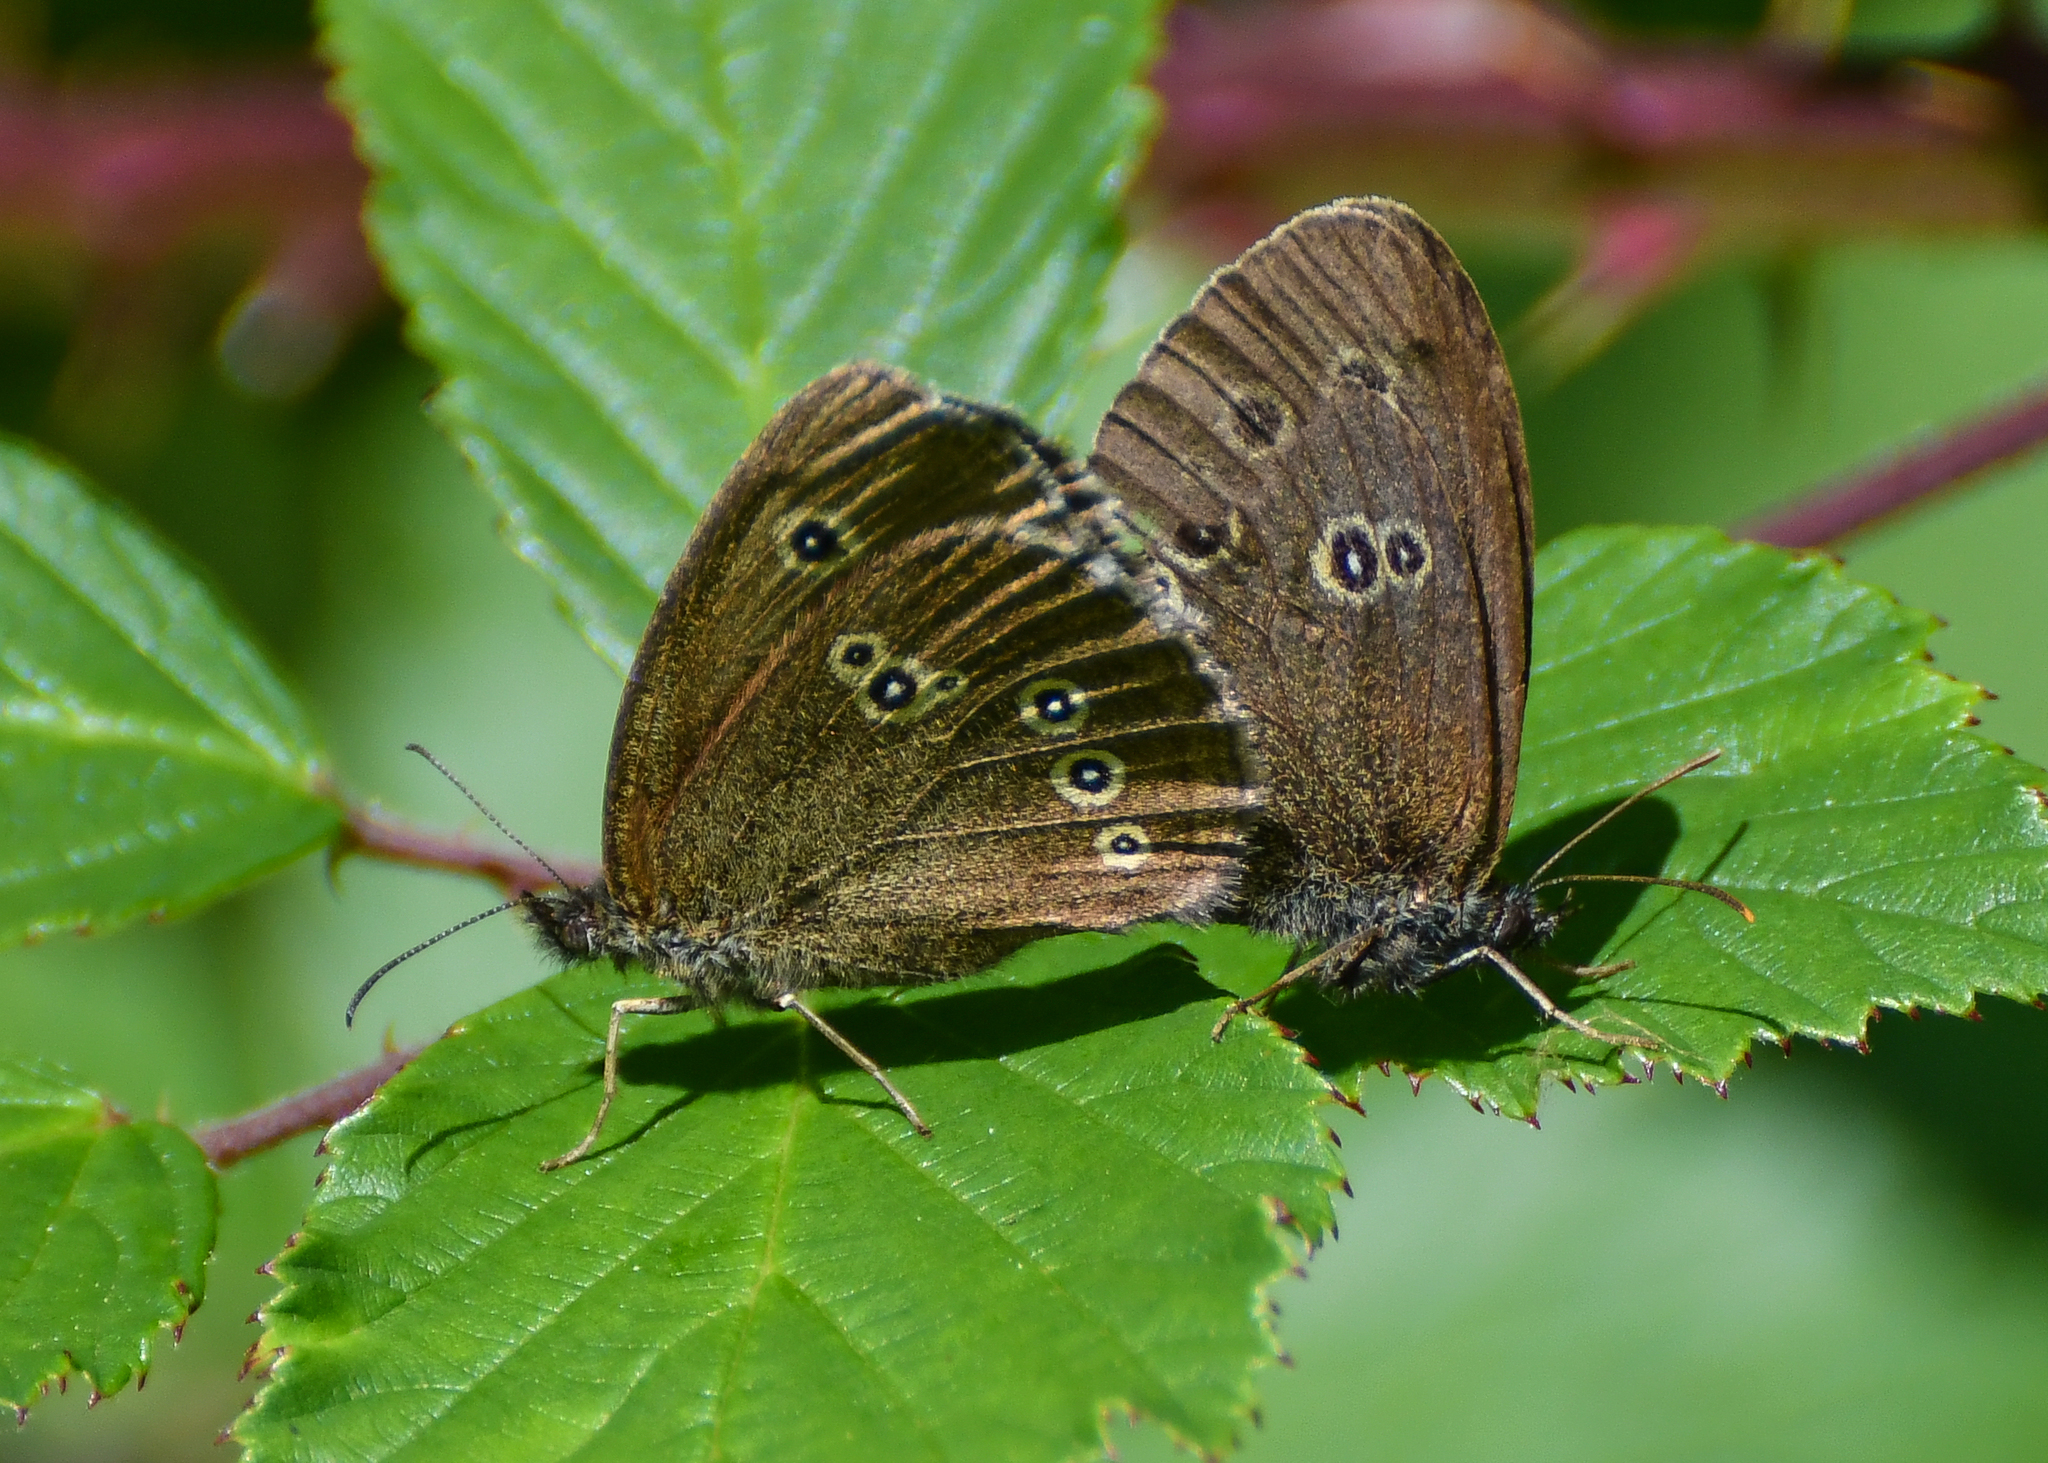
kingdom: Animalia
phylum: Arthropoda
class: Insecta
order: Lepidoptera
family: Nymphalidae
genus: Aphantopus
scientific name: Aphantopus hyperantus
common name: Ringlet
